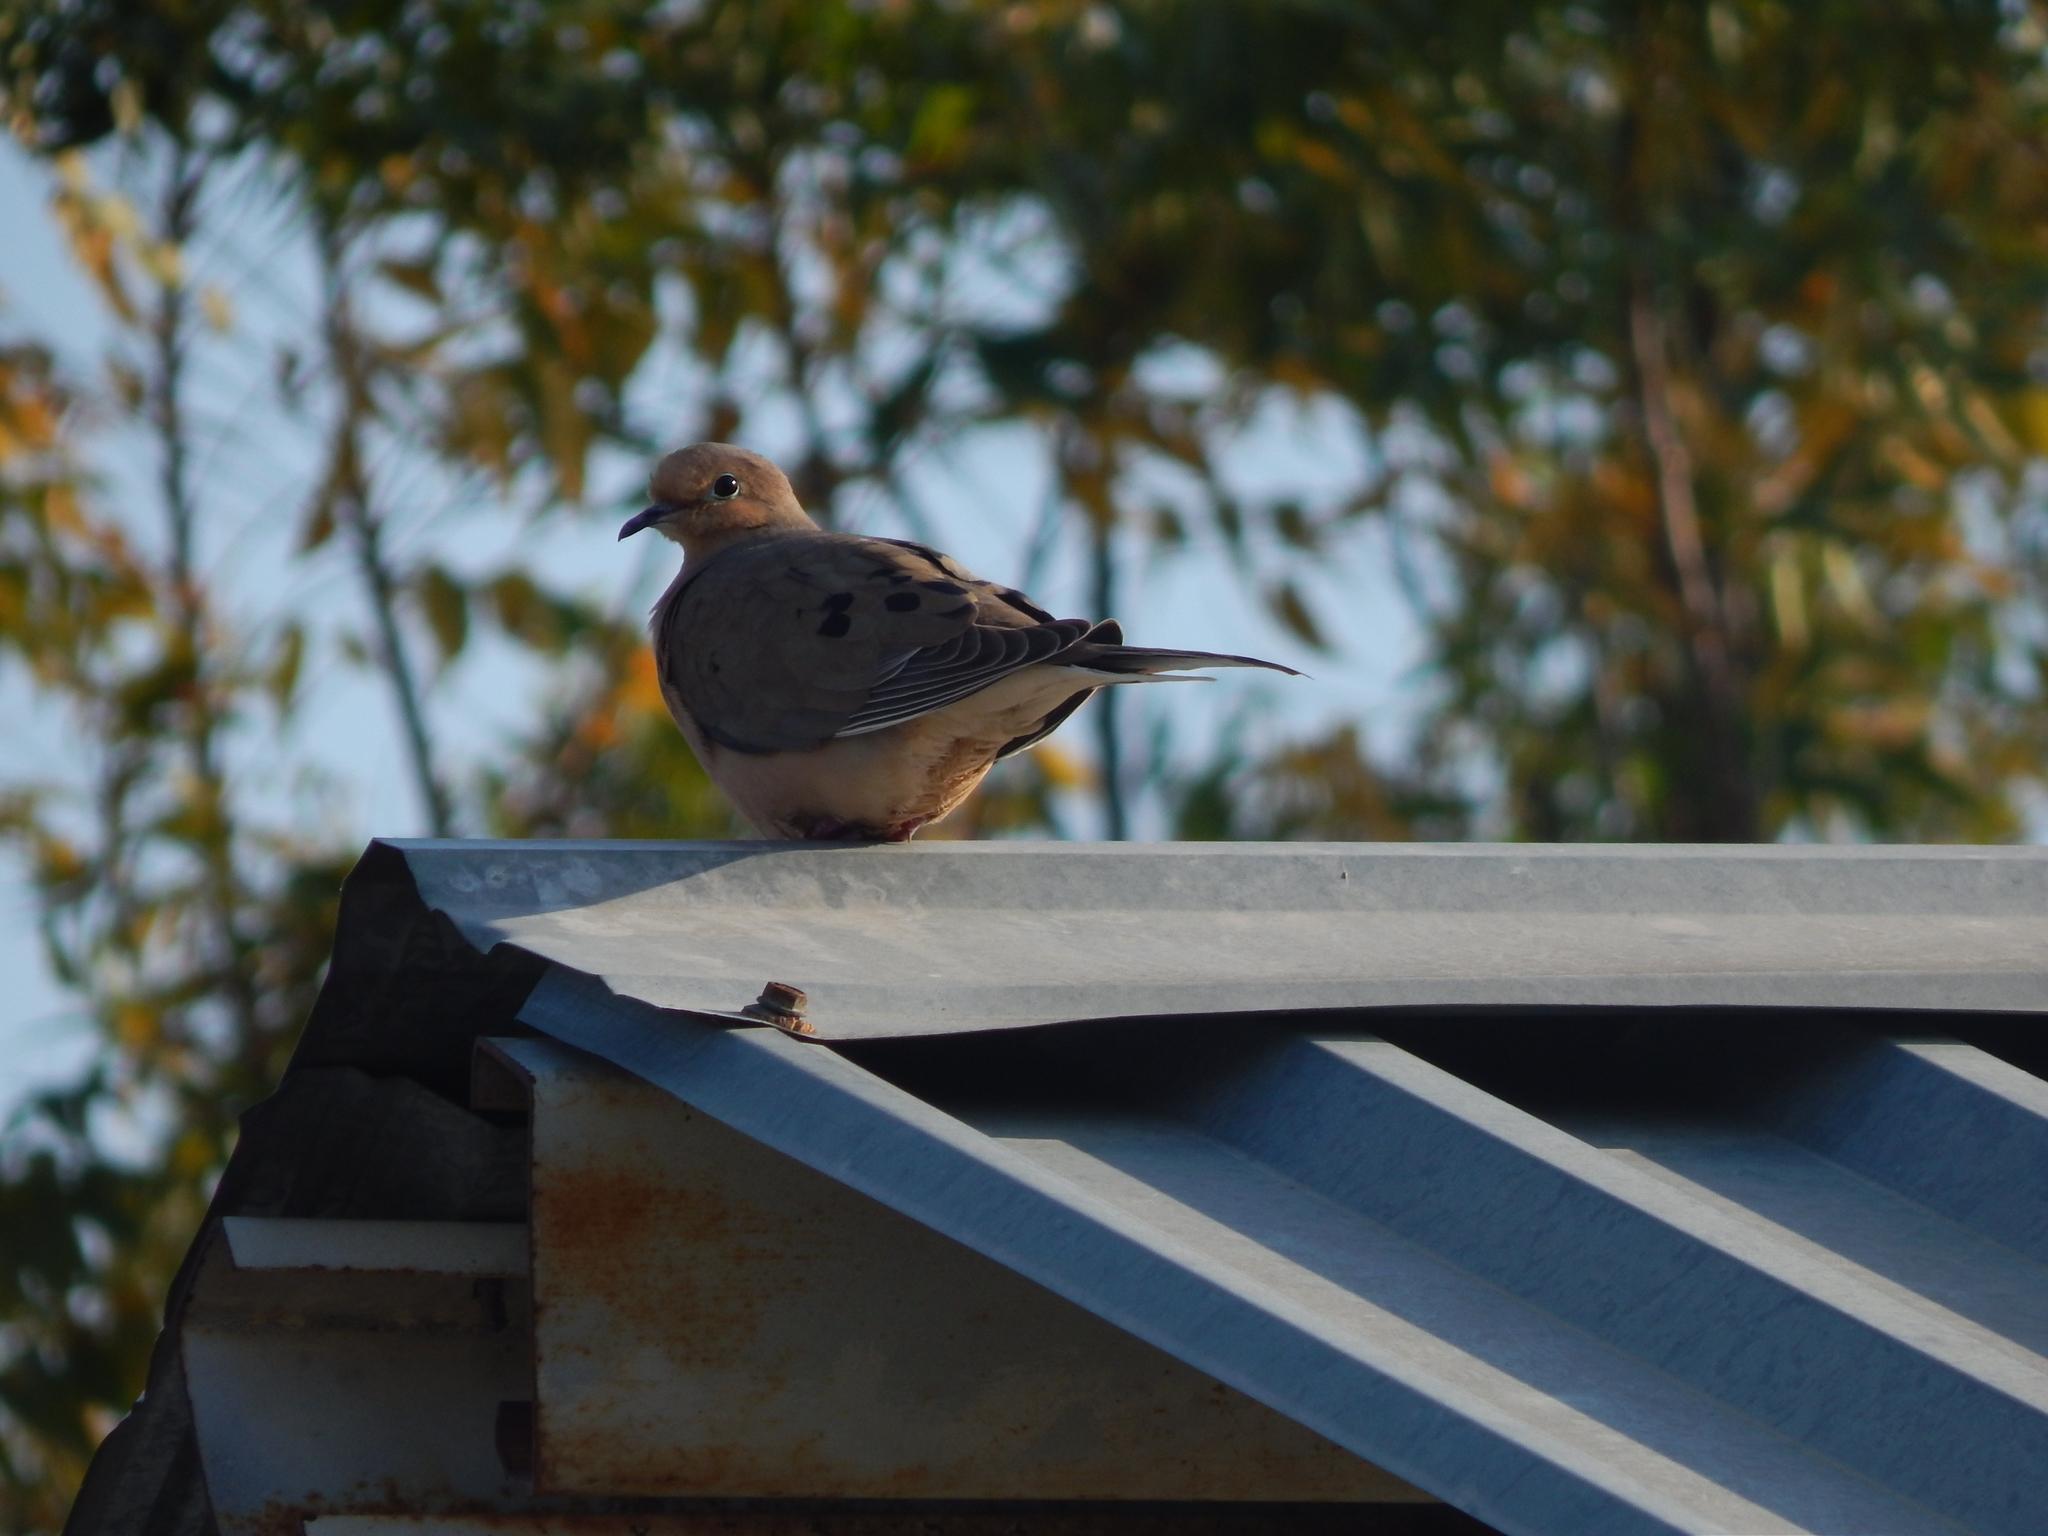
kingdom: Animalia
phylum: Chordata
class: Aves
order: Columbiformes
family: Columbidae
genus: Zenaida
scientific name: Zenaida macroura
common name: Mourning dove
